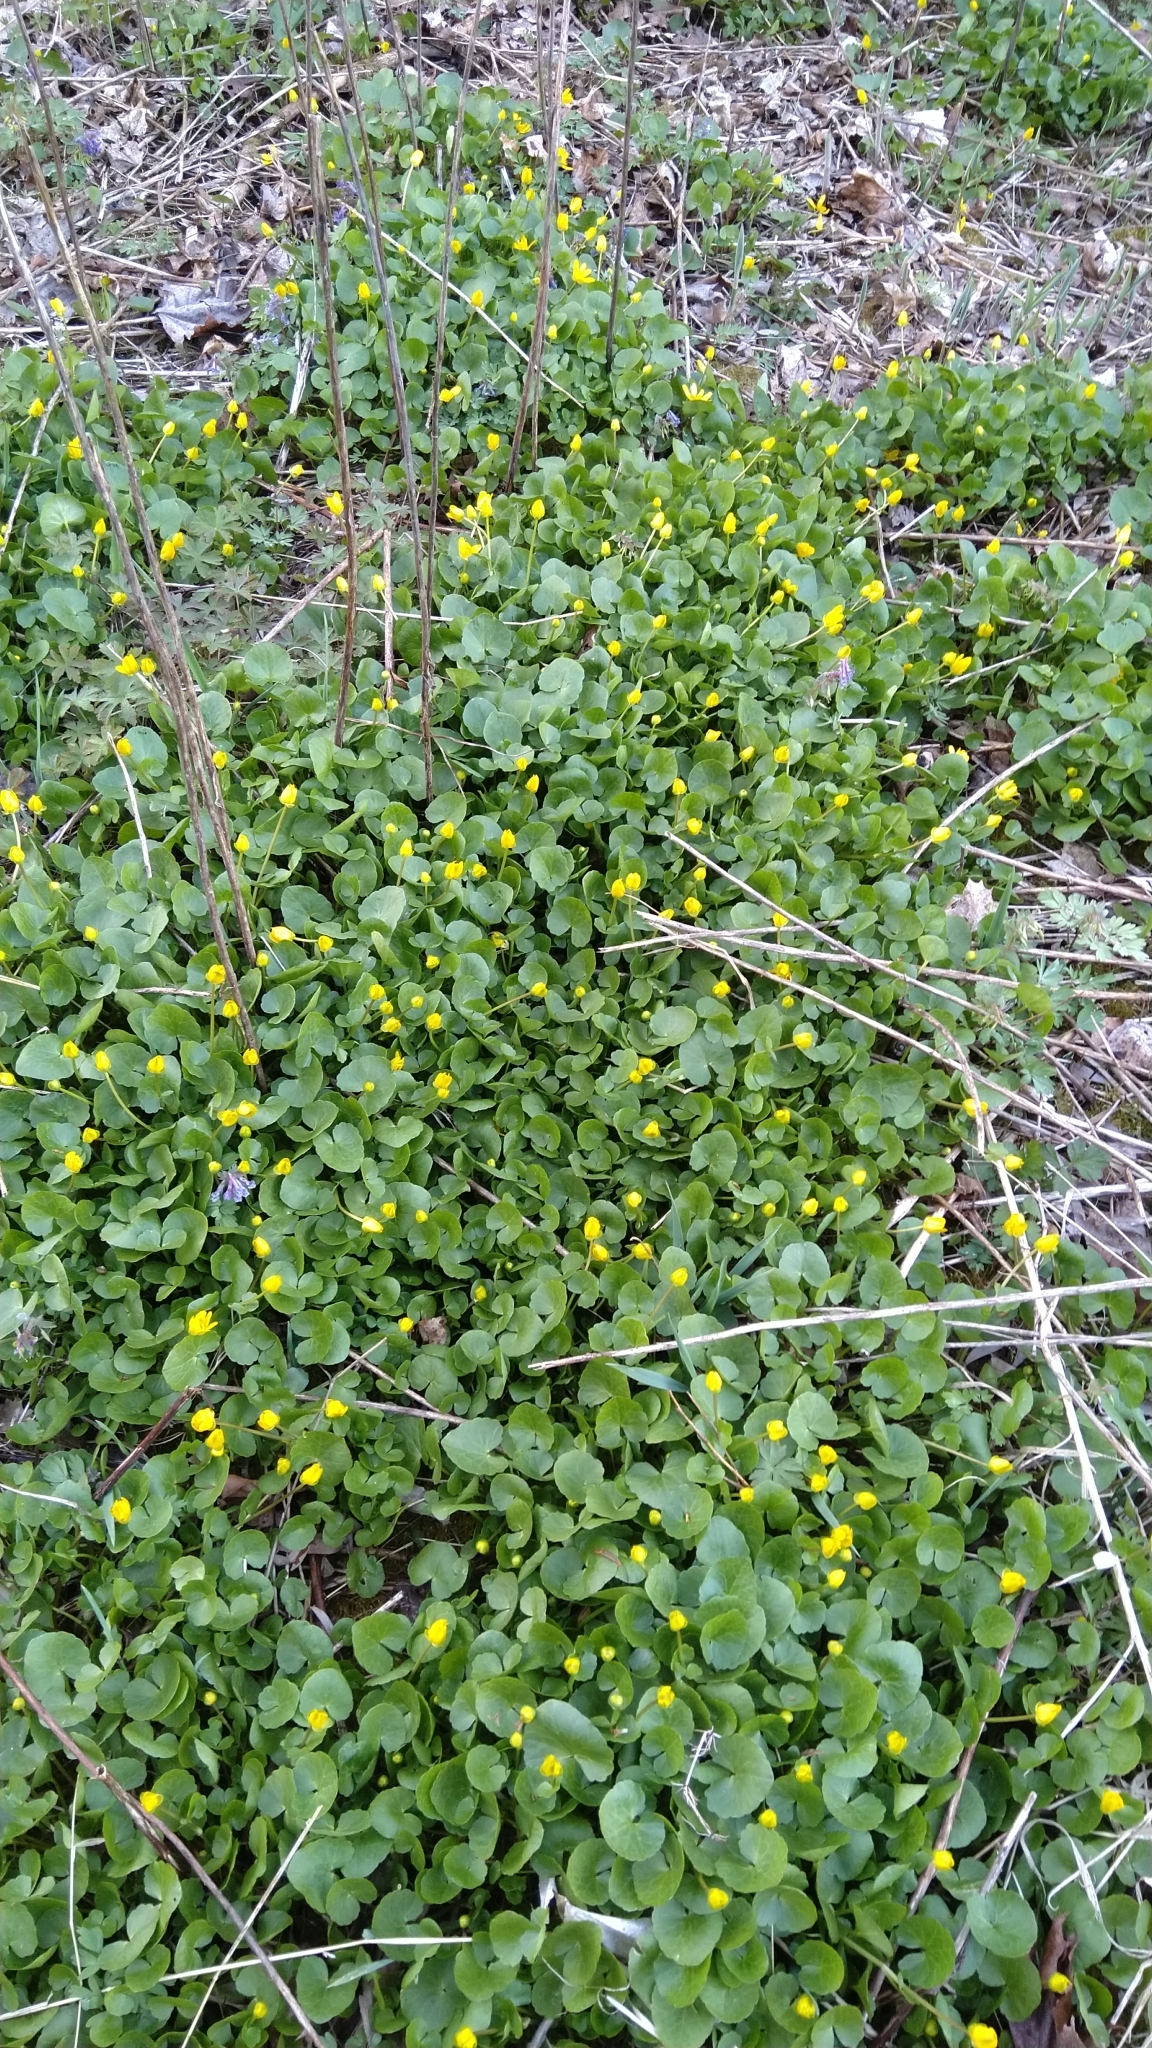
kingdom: Plantae
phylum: Tracheophyta
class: Magnoliopsida
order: Ranunculales
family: Ranunculaceae
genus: Ficaria
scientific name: Ficaria verna
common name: Lesser celandine
